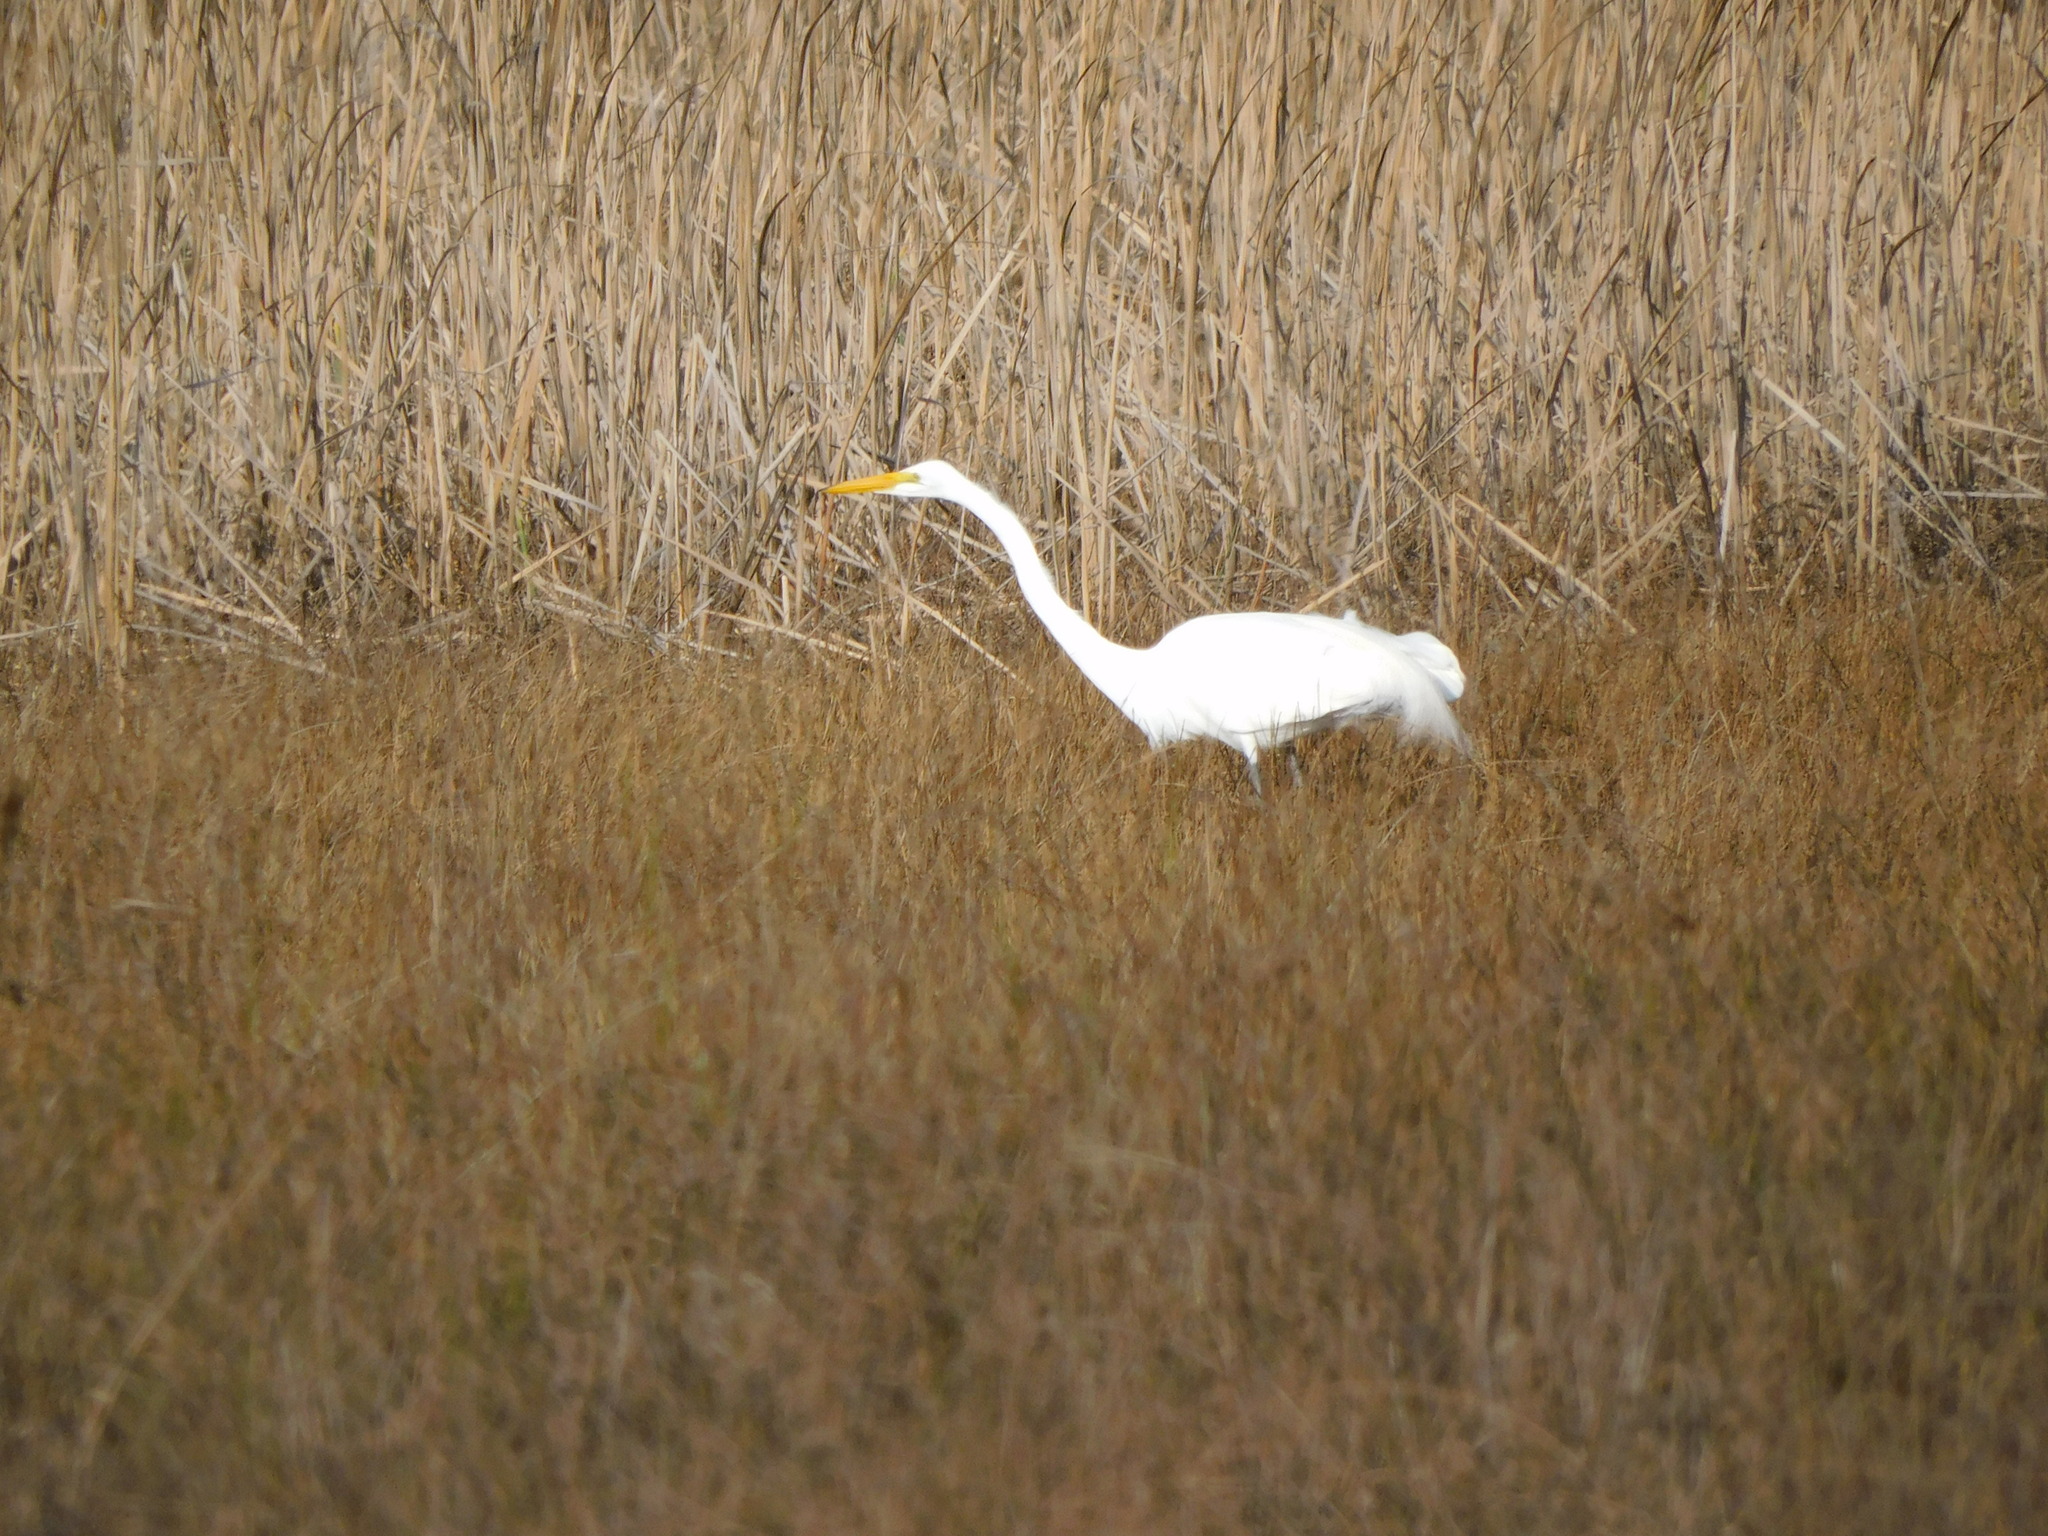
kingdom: Animalia
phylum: Chordata
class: Aves
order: Pelecaniformes
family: Ardeidae
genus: Ardea
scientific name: Ardea alba
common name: Great egret
